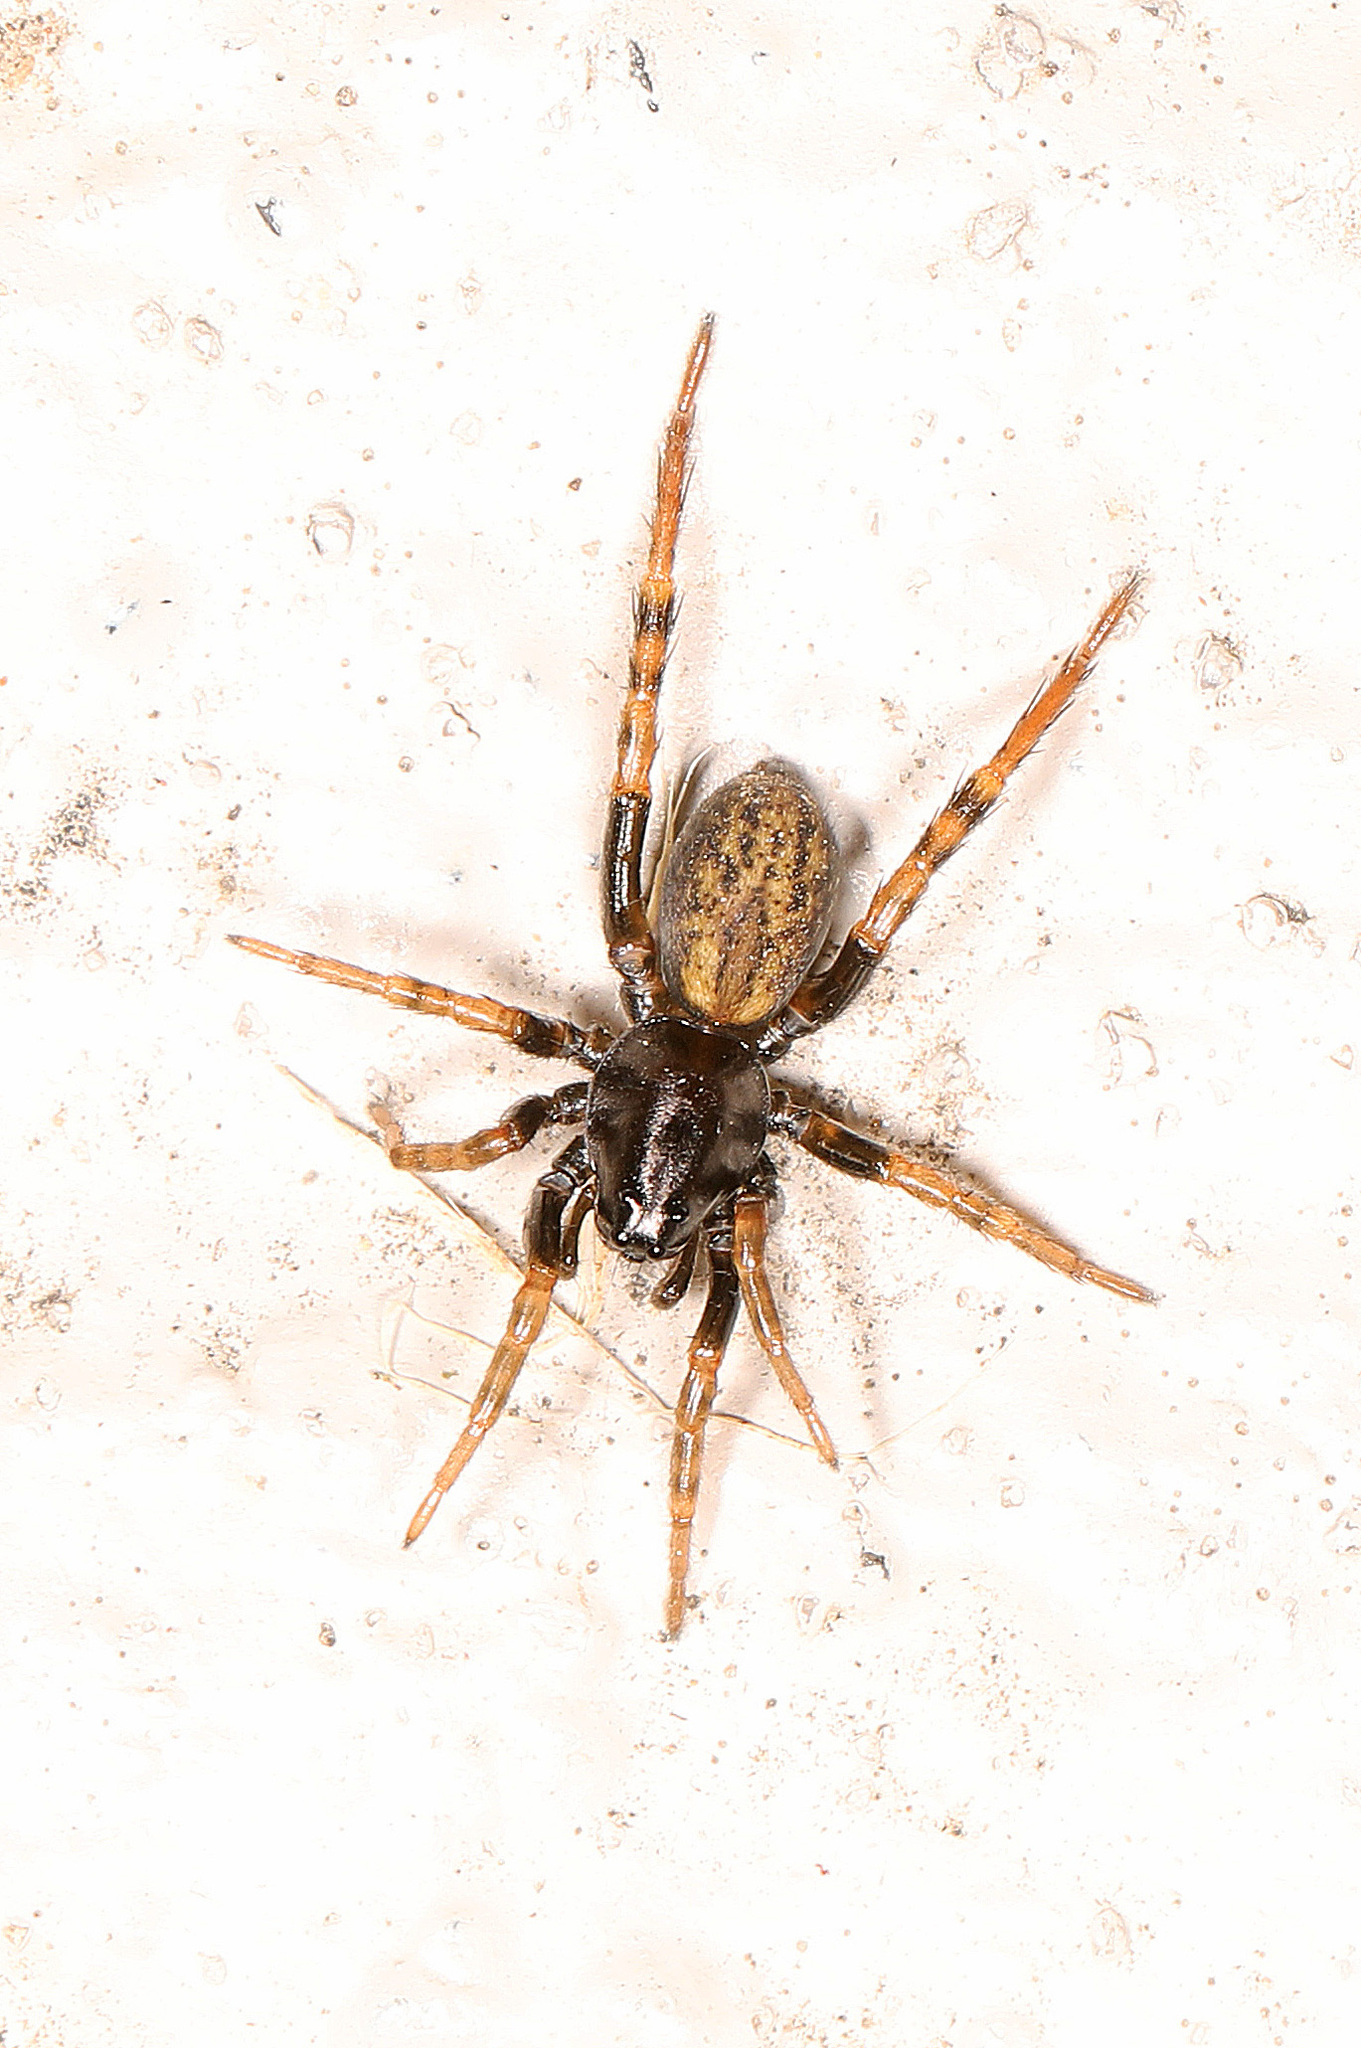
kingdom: Animalia
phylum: Arthropoda
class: Arachnida
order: Araneae
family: Lycosidae
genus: Allocosa
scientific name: Allocosa funerea
